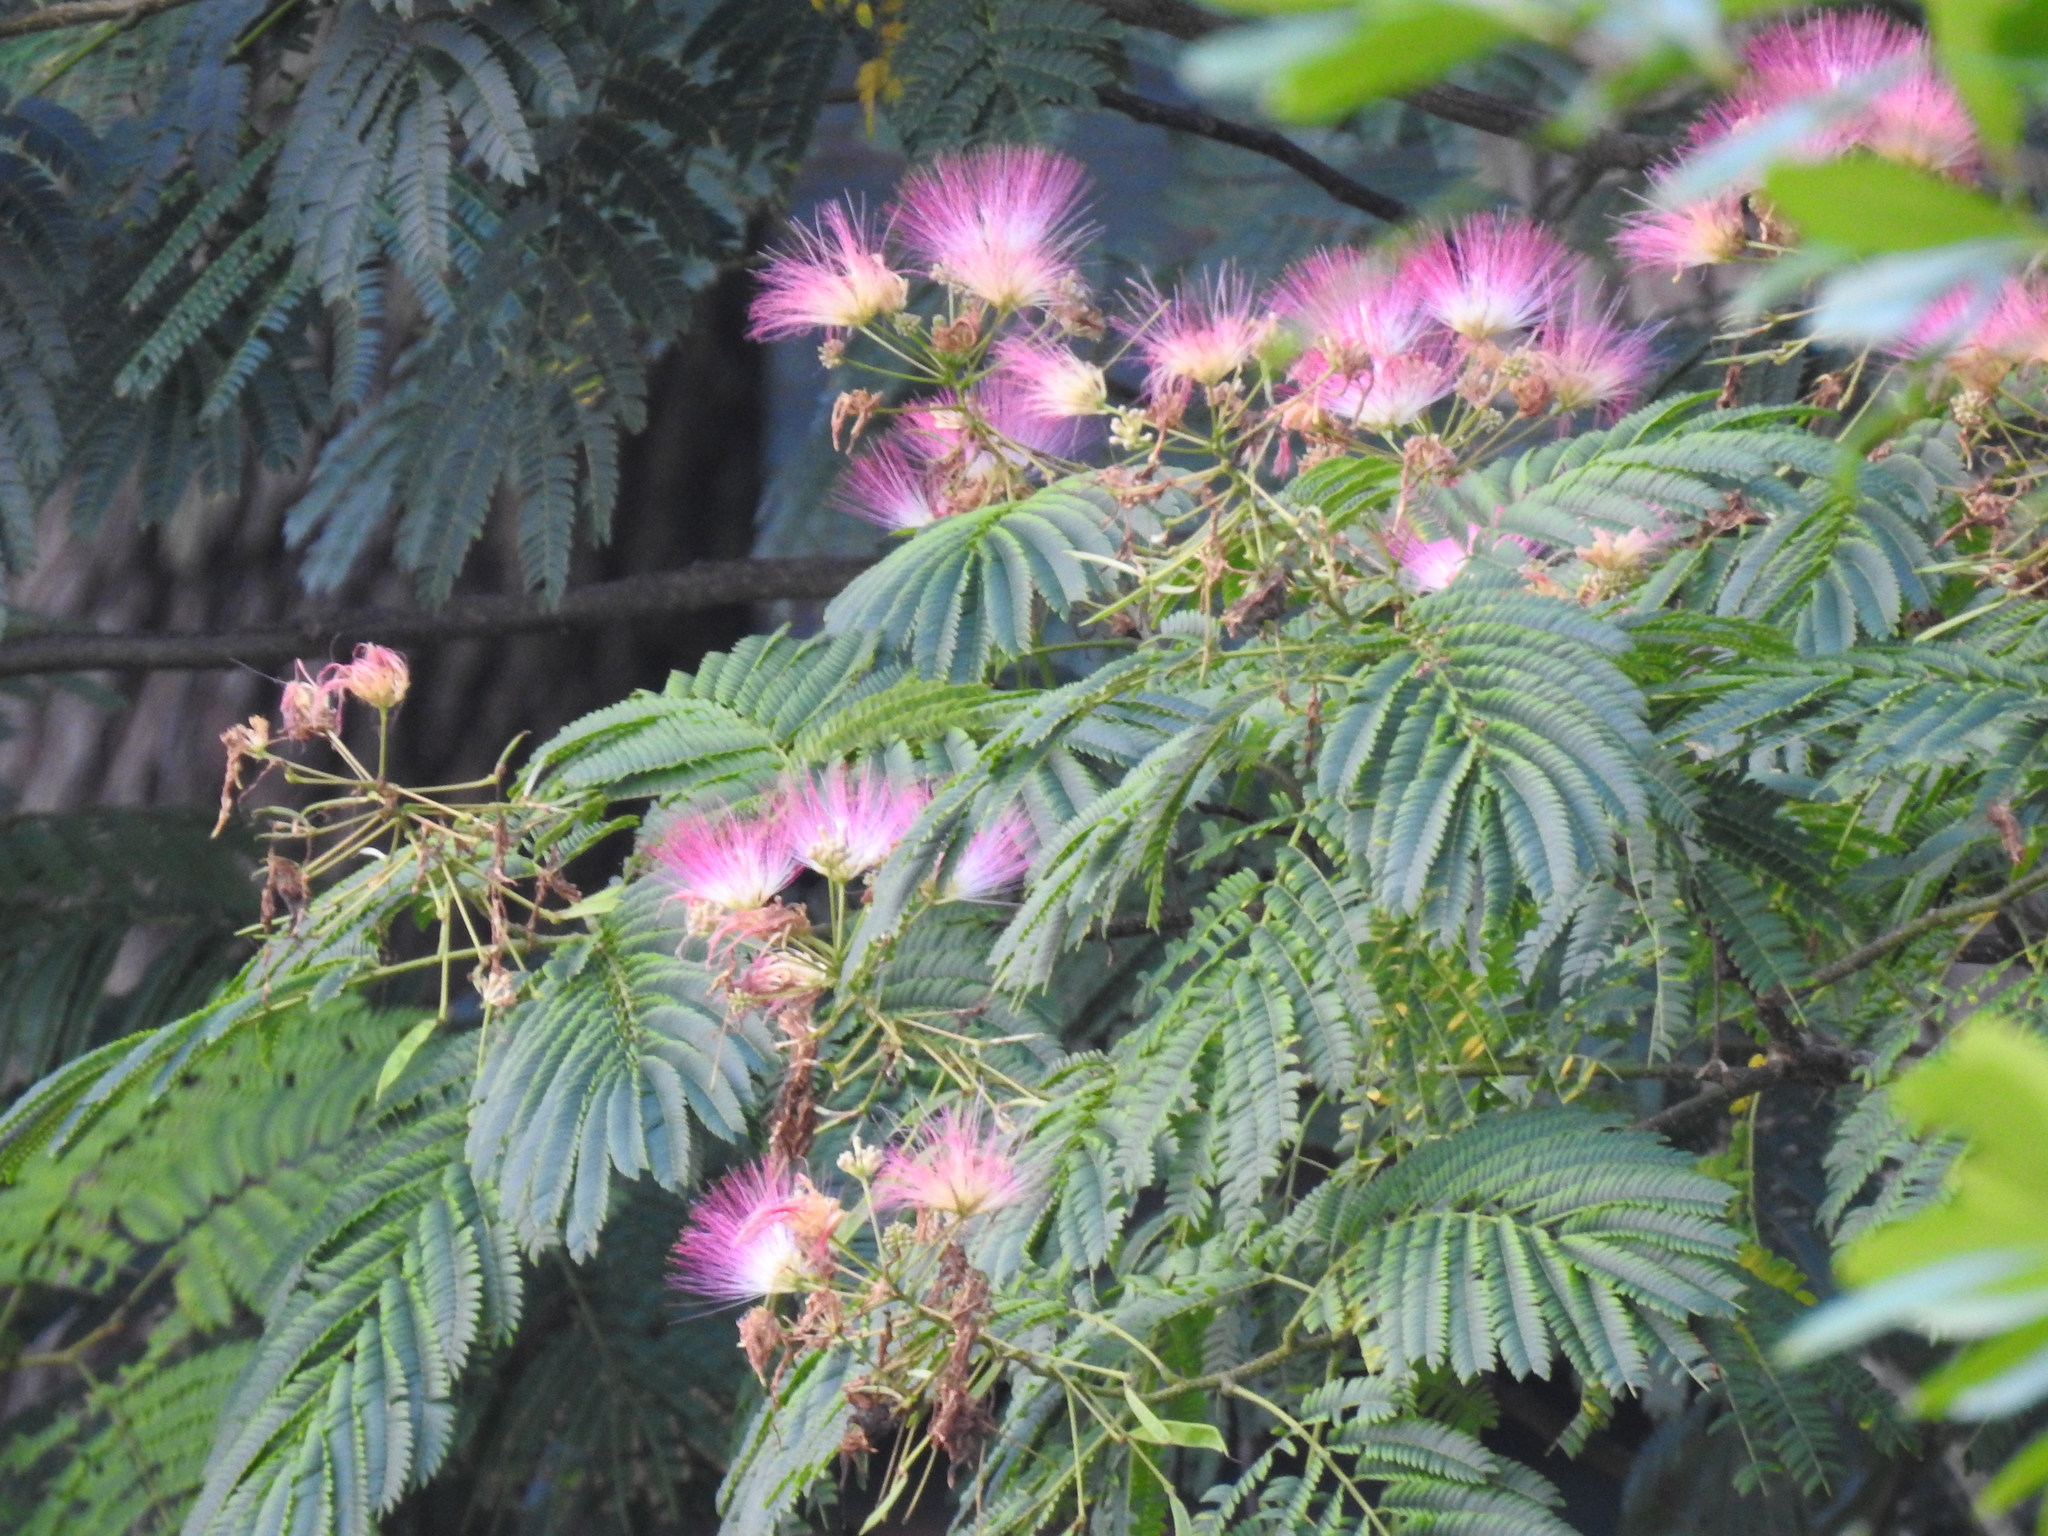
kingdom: Plantae
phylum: Tracheophyta
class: Magnoliopsida
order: Fabales
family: Fabaceae
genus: Albizia
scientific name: Albizia julibrissin
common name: Silktree
